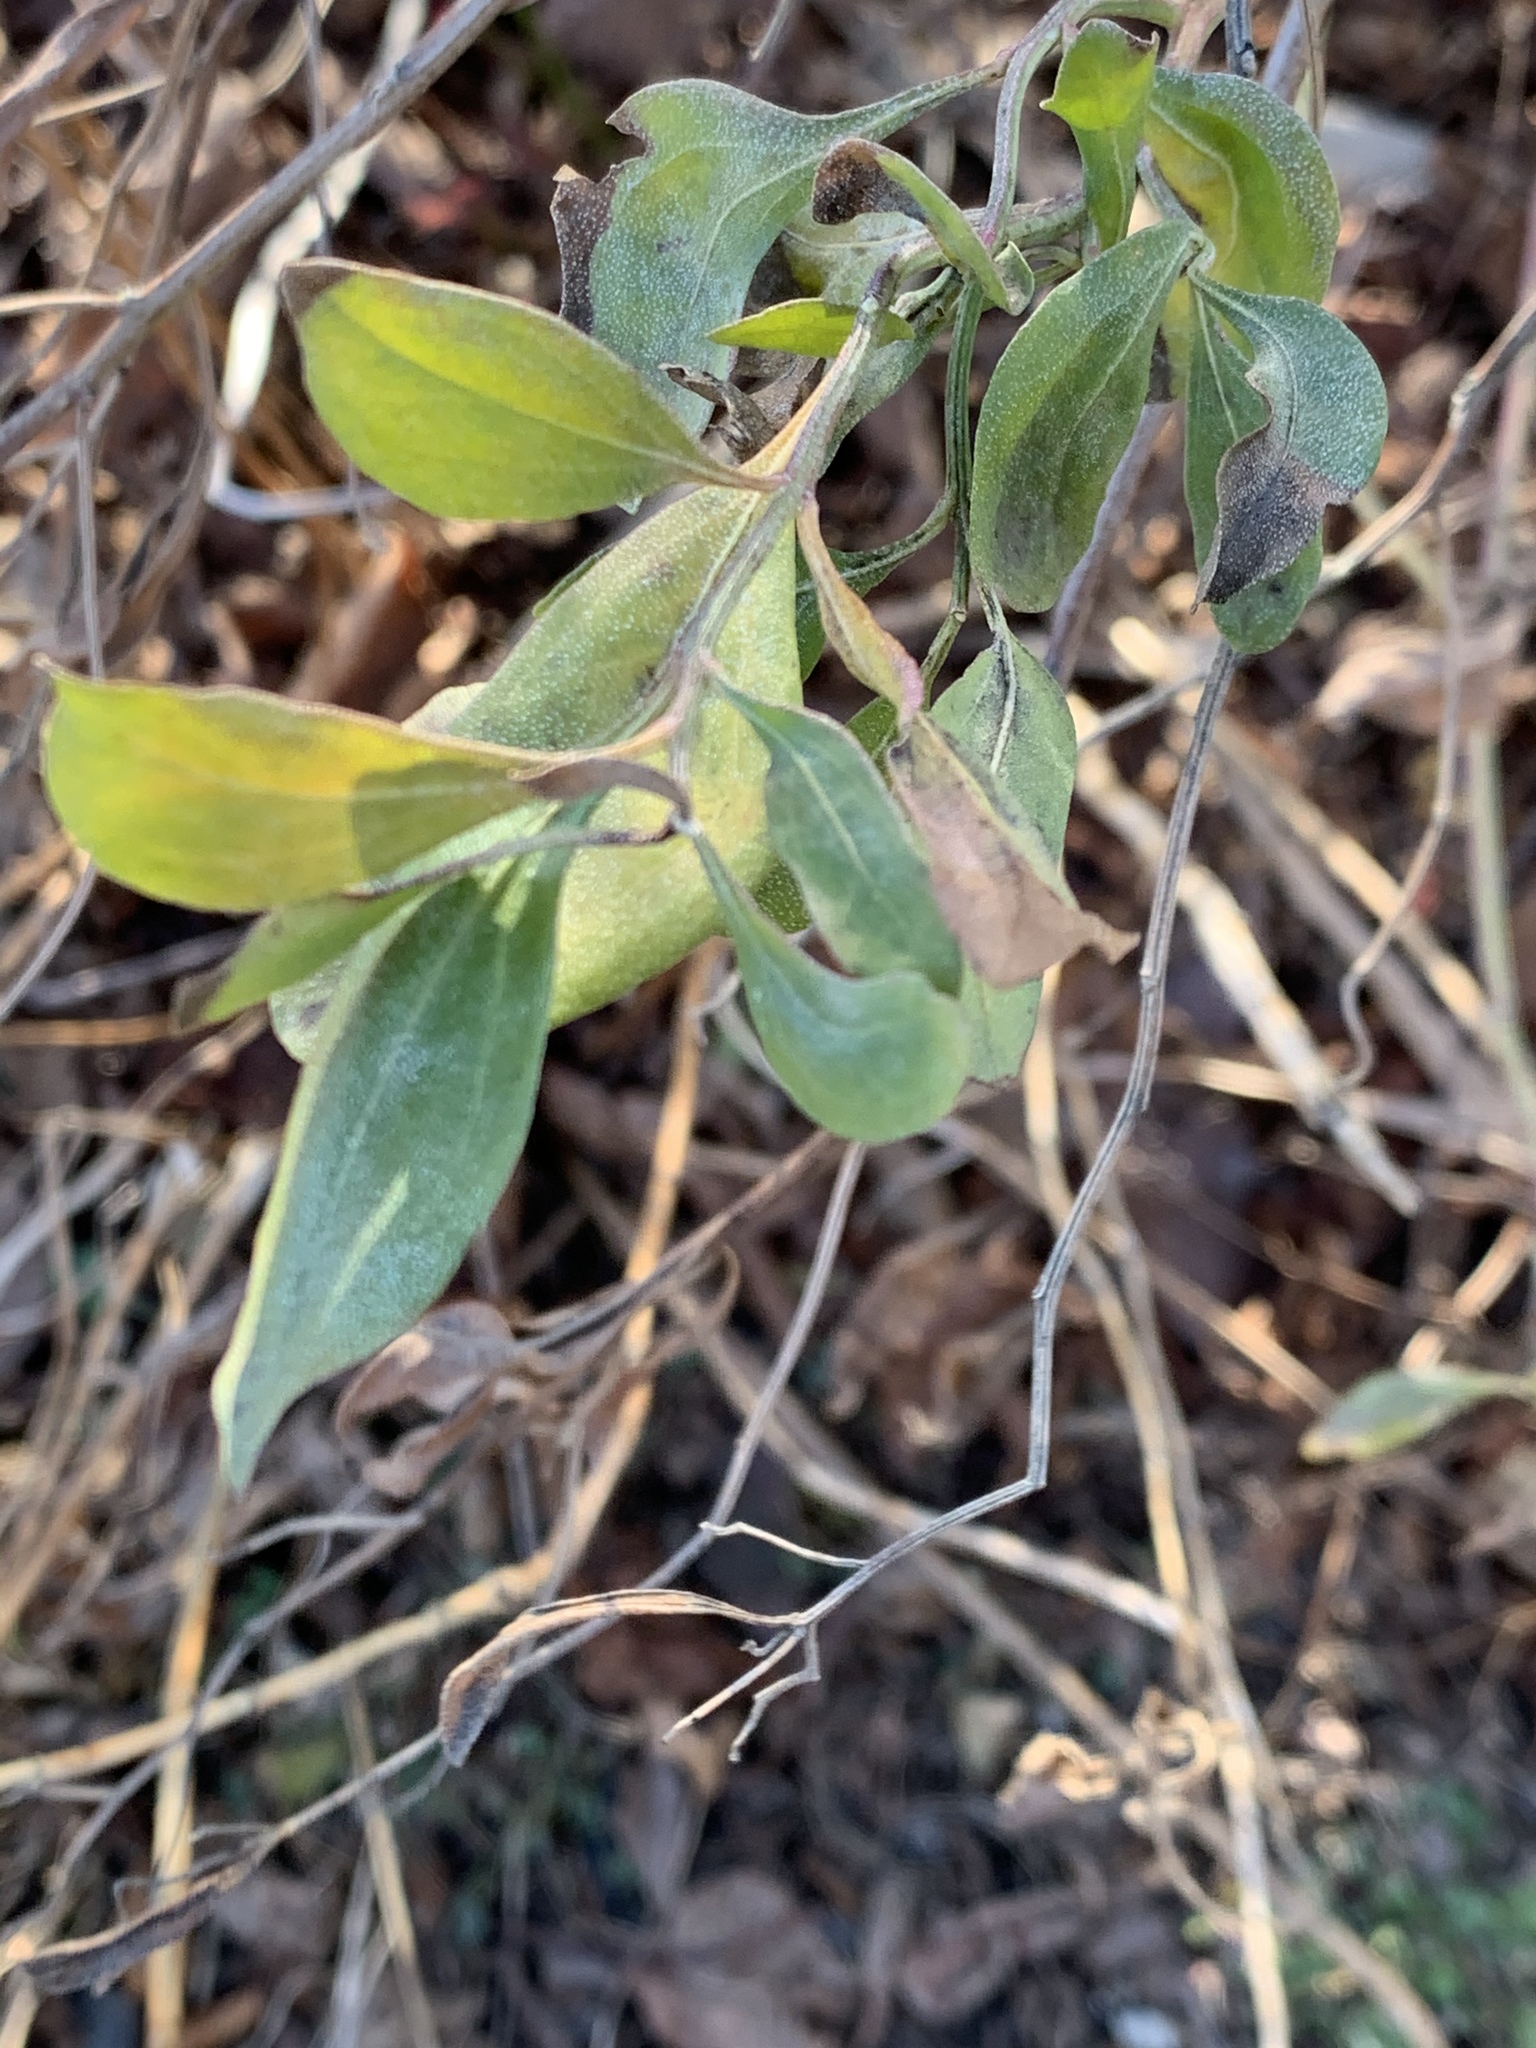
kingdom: Plantae
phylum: Tracheophyta
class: Magnoliopsida
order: Asterales
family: Asteraceae
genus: Baccharis
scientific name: Baccharis halimifolia
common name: Eastern baccharis
